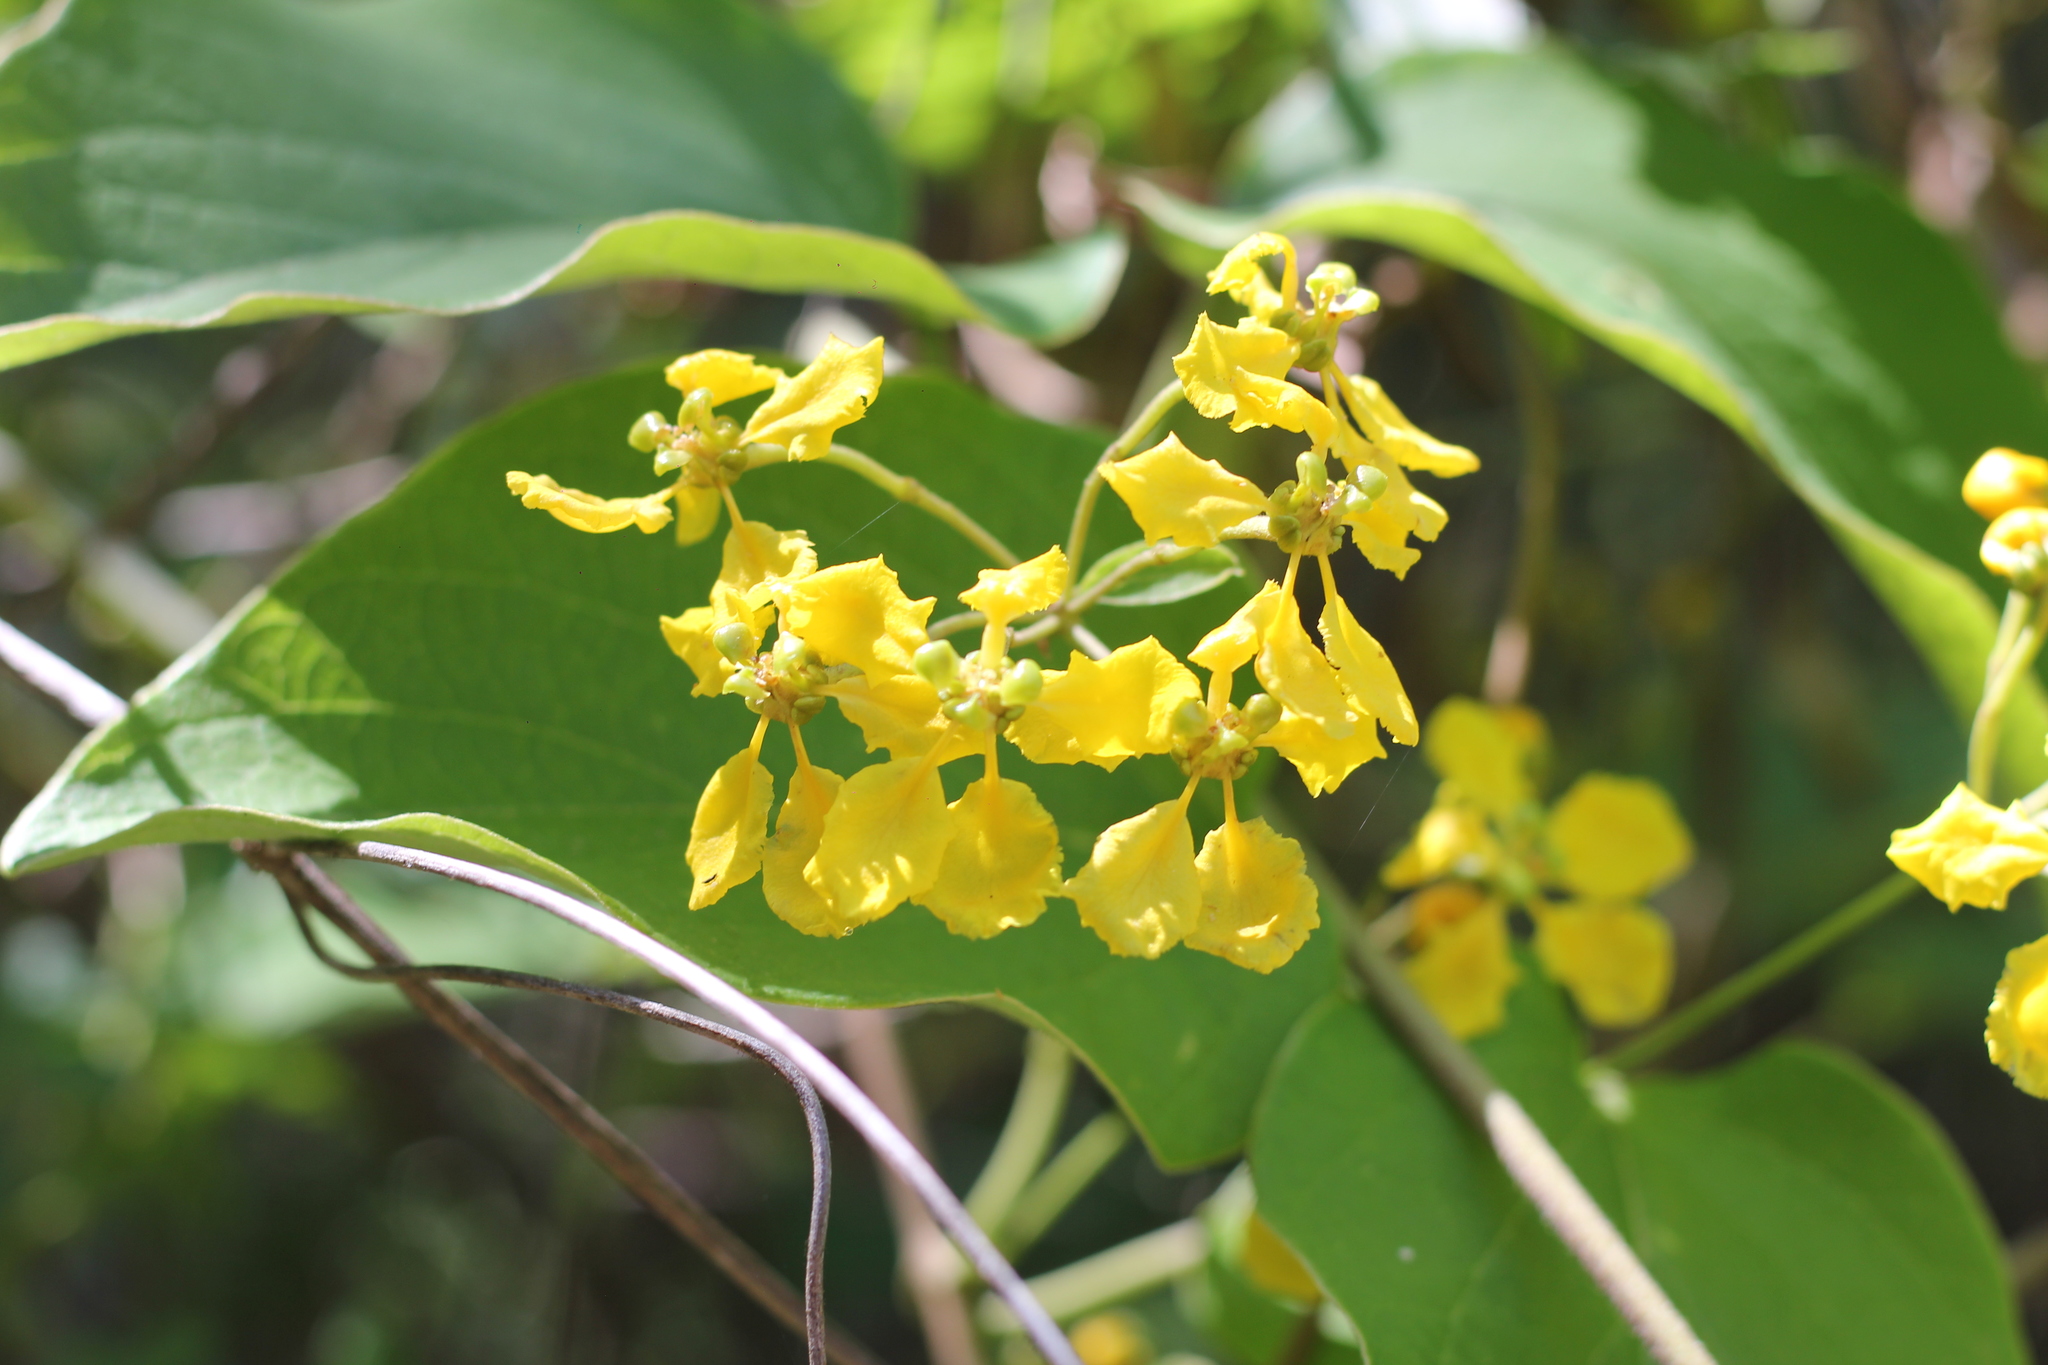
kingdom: Plantae
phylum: Tracheophyta
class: Magnoliopsida
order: Malpighiales
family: Malpighiaceae
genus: Stigmaphyllon
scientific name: Stigmaphyllon bonariense
